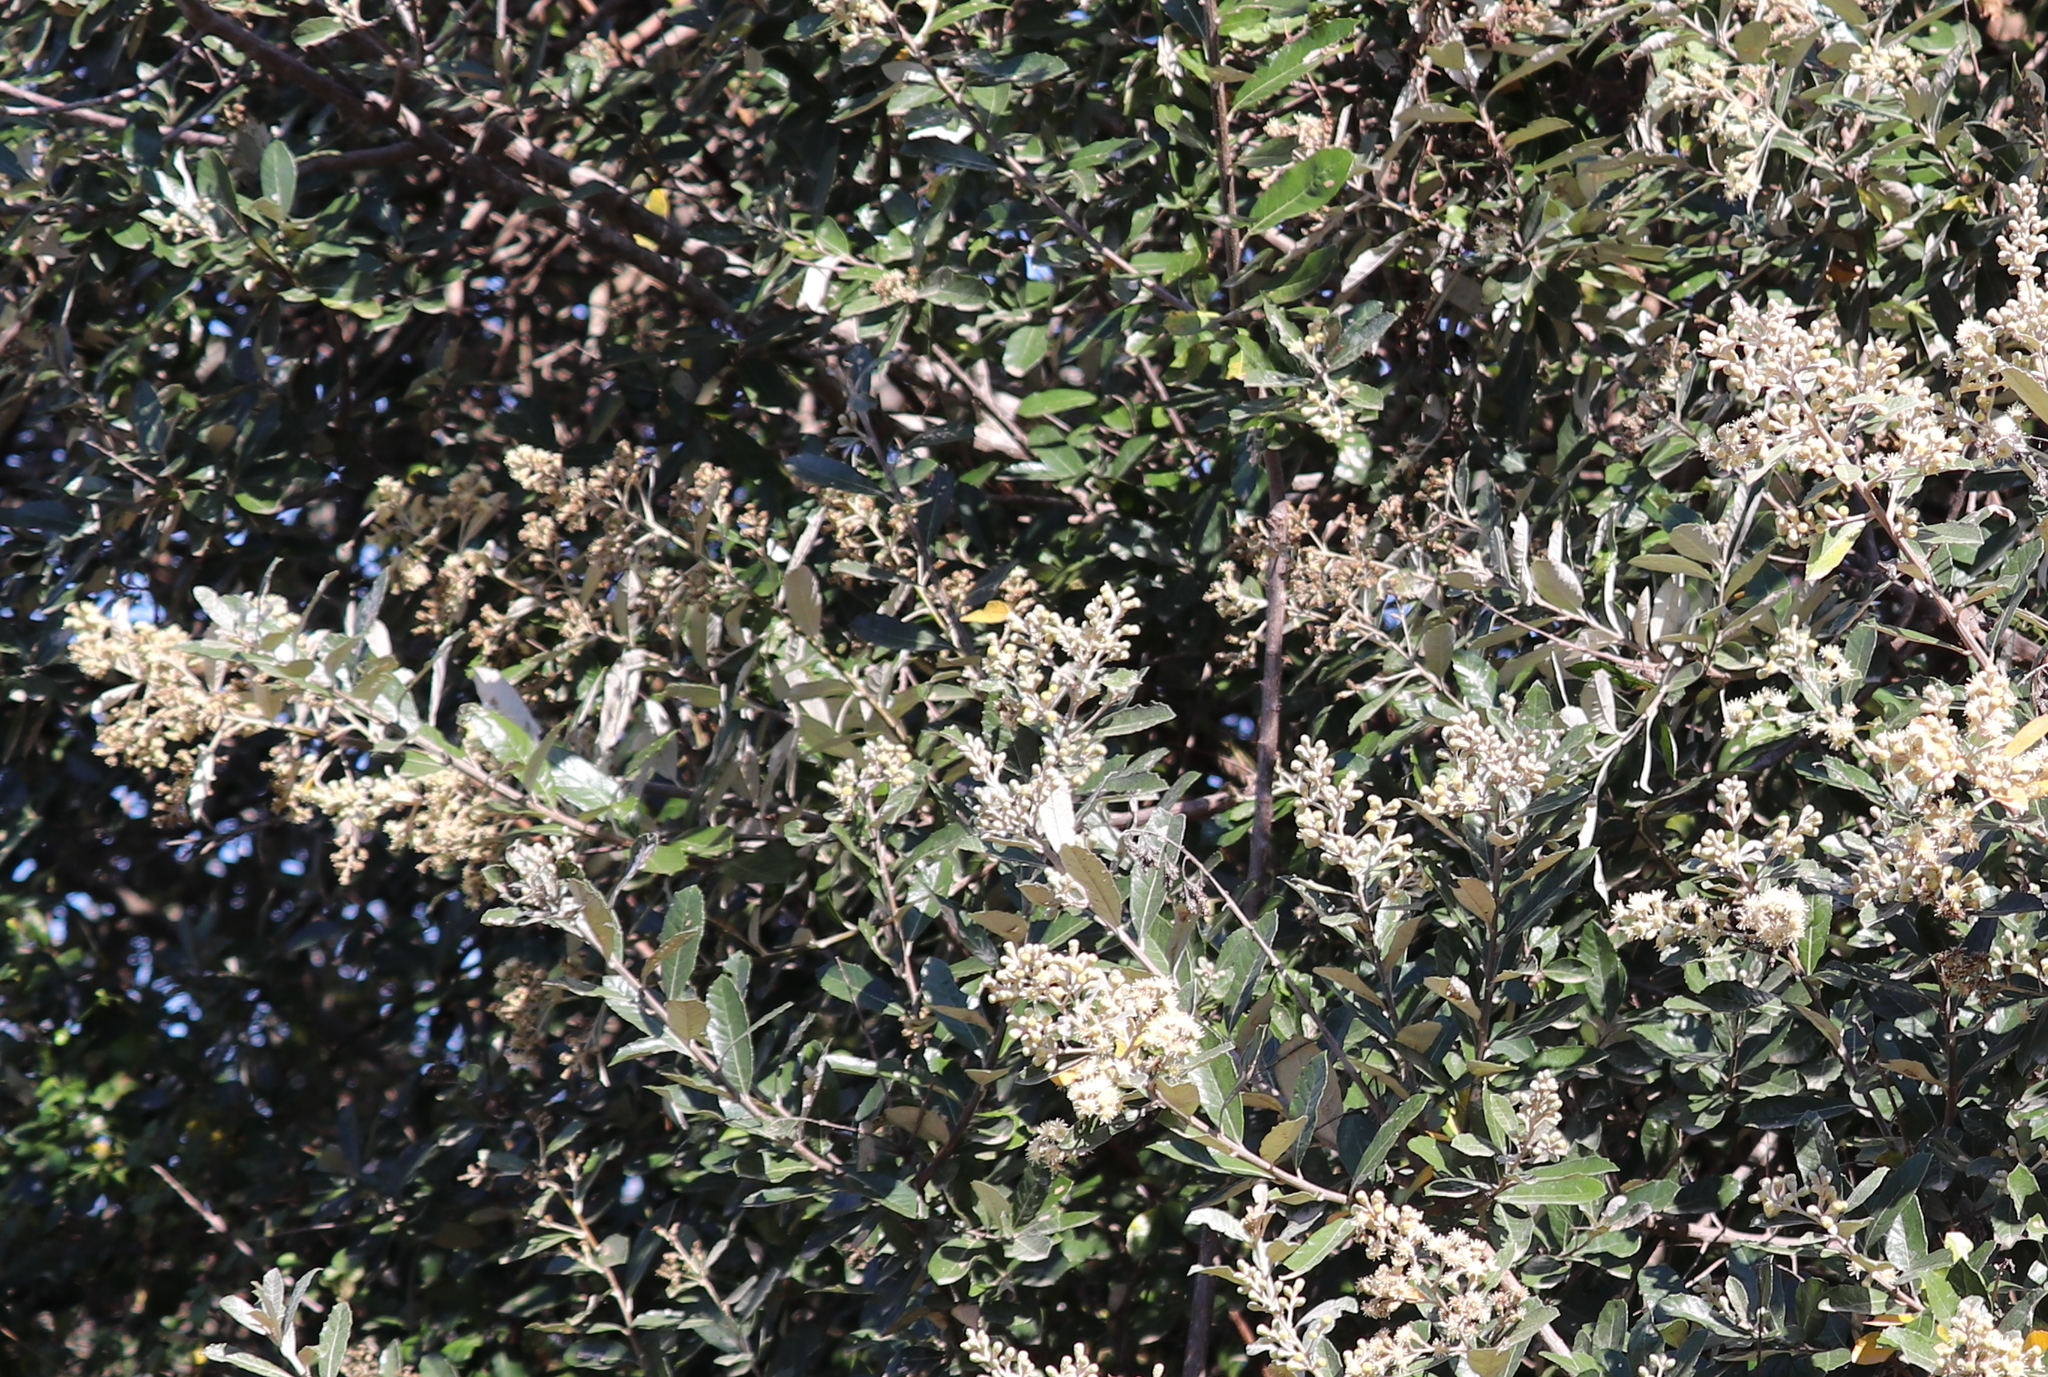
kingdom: Plantae
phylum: Tracheophyta
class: Magnoliopsida
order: Asterales
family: Asteraceae
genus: Brachylaena
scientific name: Brachylaena discolor
